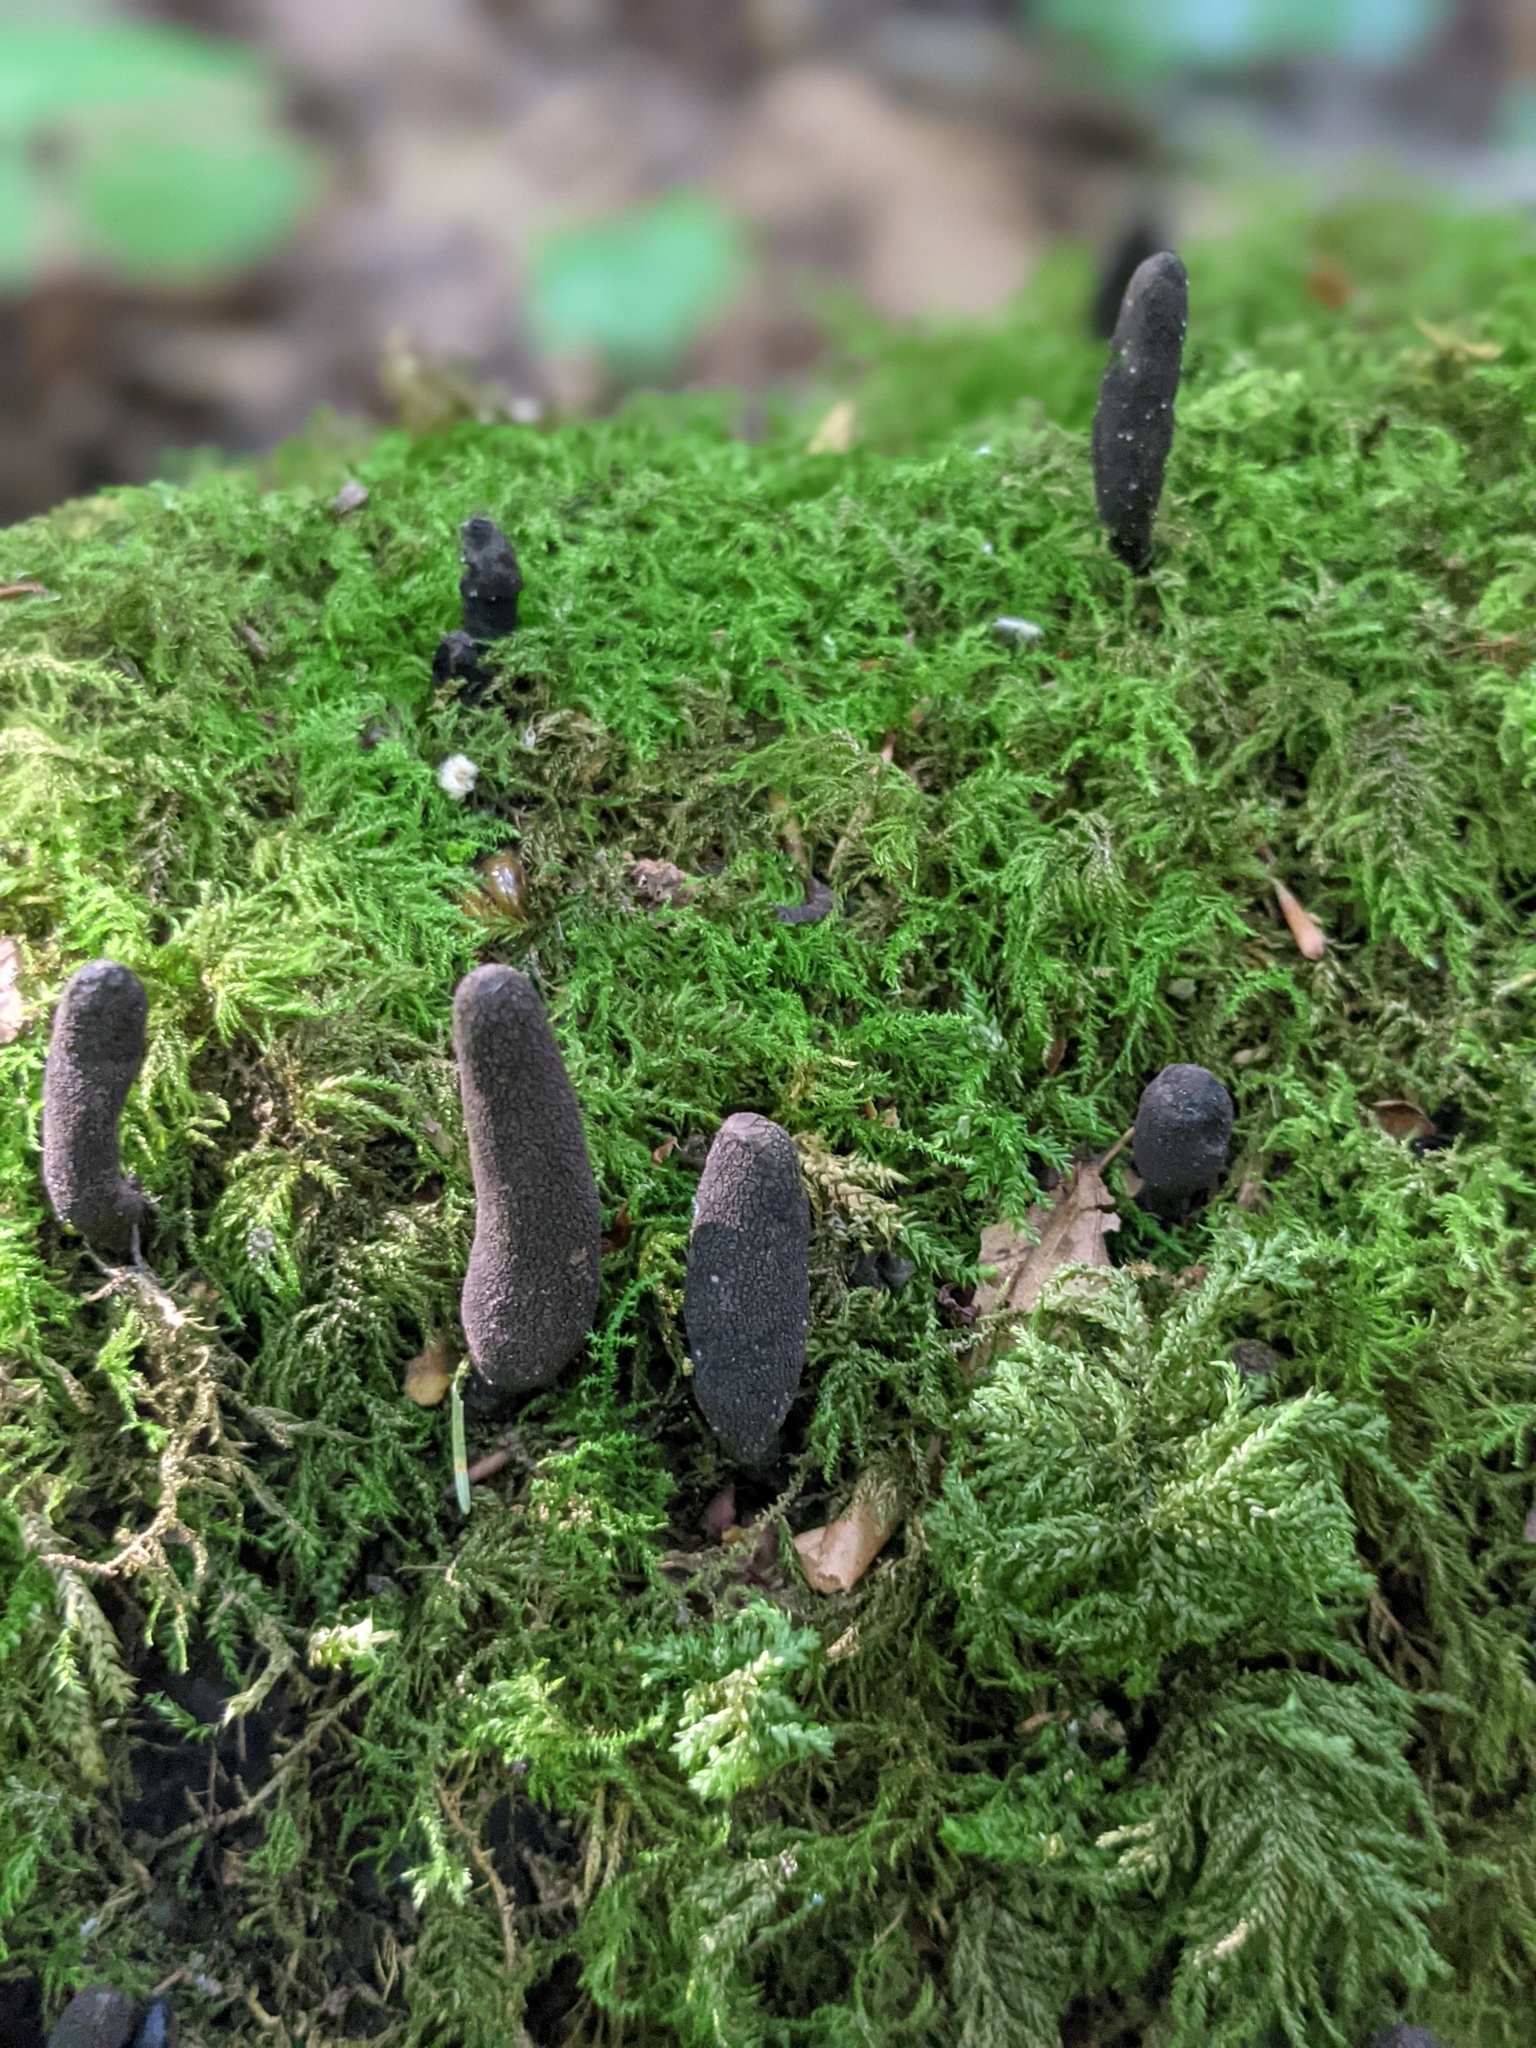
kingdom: Fungi
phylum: Ascomycota
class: Sordariomycetes
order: Xylariales
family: Xylariaceae
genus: Xylaria
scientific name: Xylaria polymorpha
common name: Dead man's fingers
